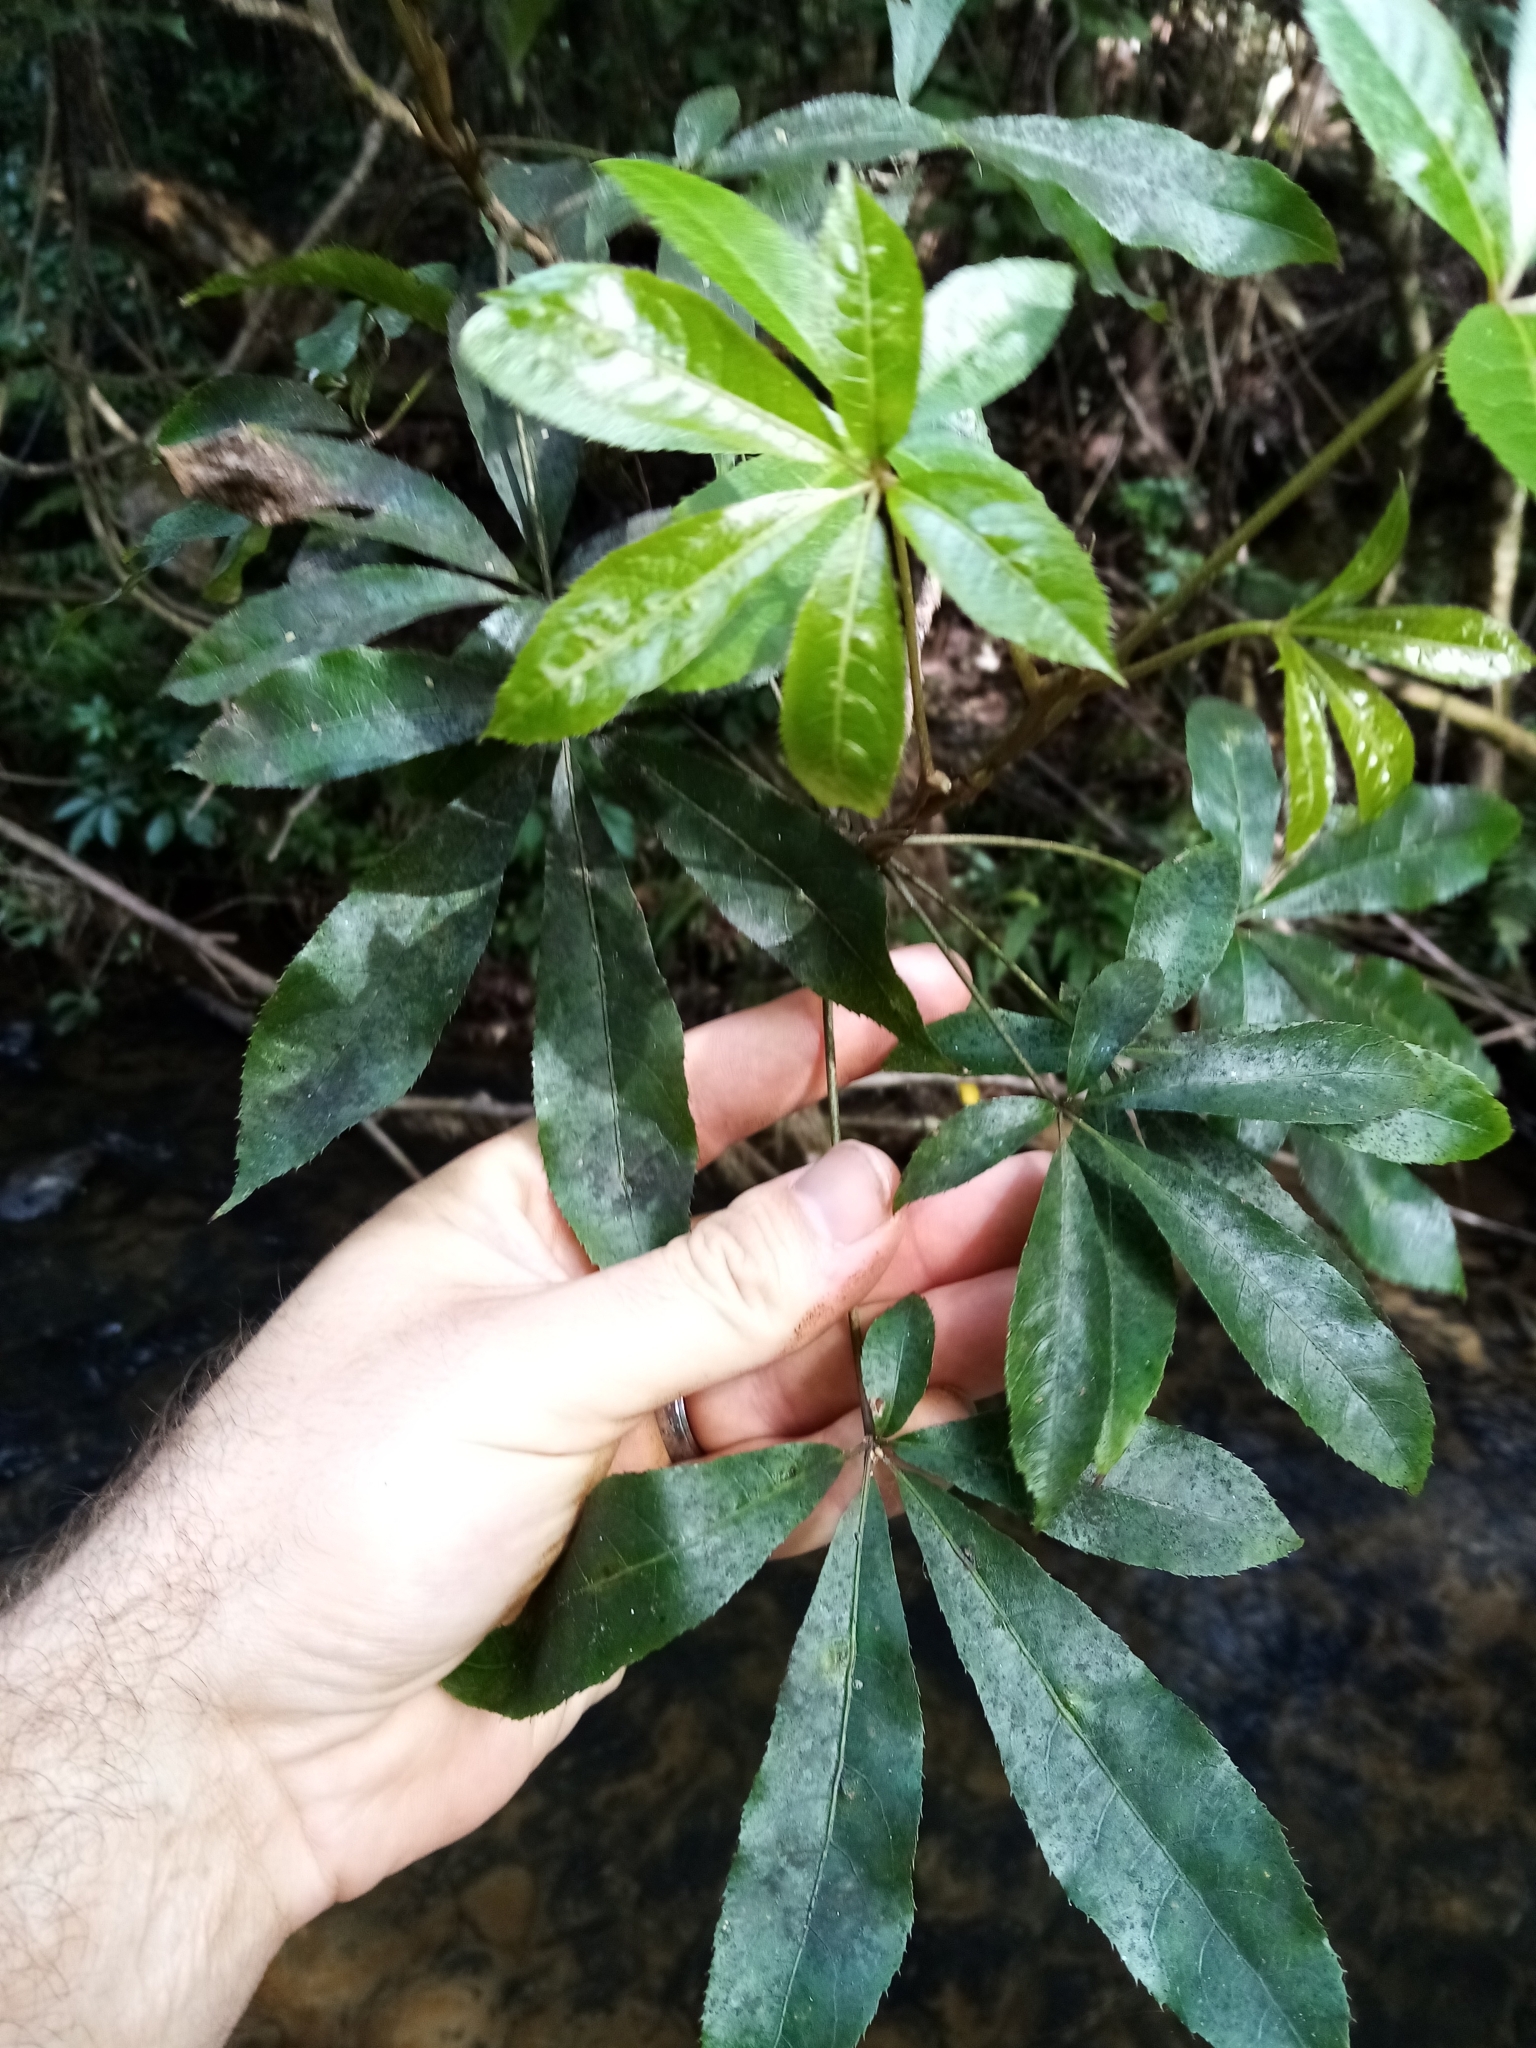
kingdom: Plantae
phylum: Tracheophyta
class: Magnoliopsida
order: Apiales
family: Araliaceae
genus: Schefflera
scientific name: Schefflera digitata
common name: Pate
